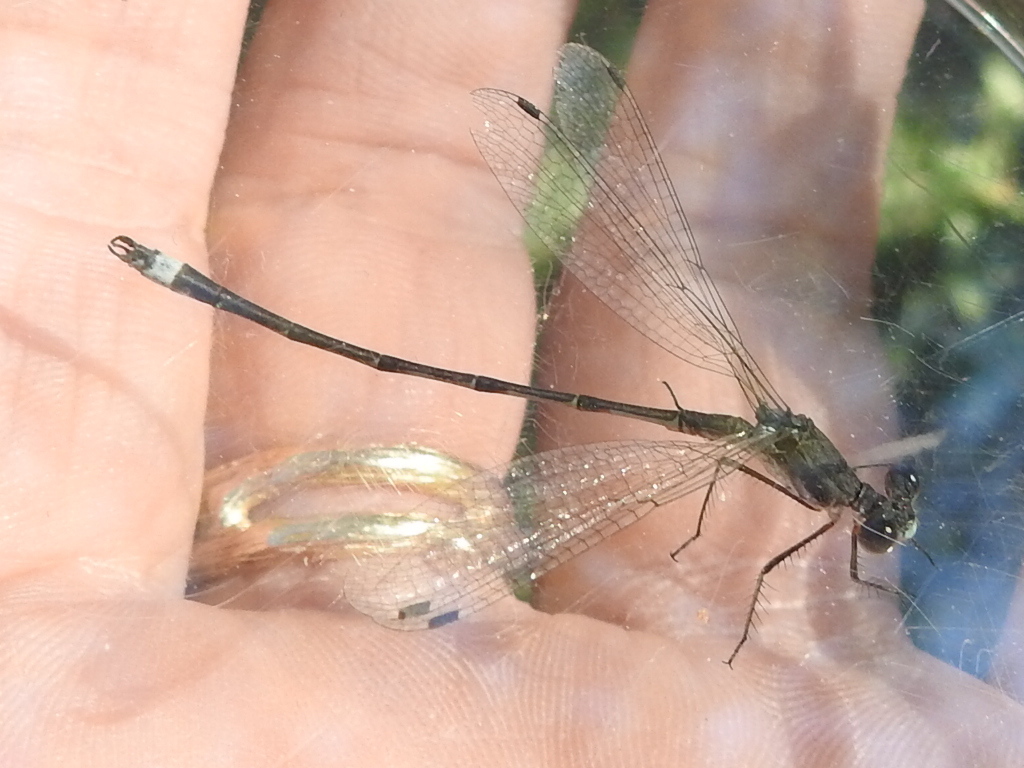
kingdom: Animalia
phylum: Arthropoda
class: Insecta
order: Odonata
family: Lestidae
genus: Lestes
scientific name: Lestes australis
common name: Southern spreadwing
